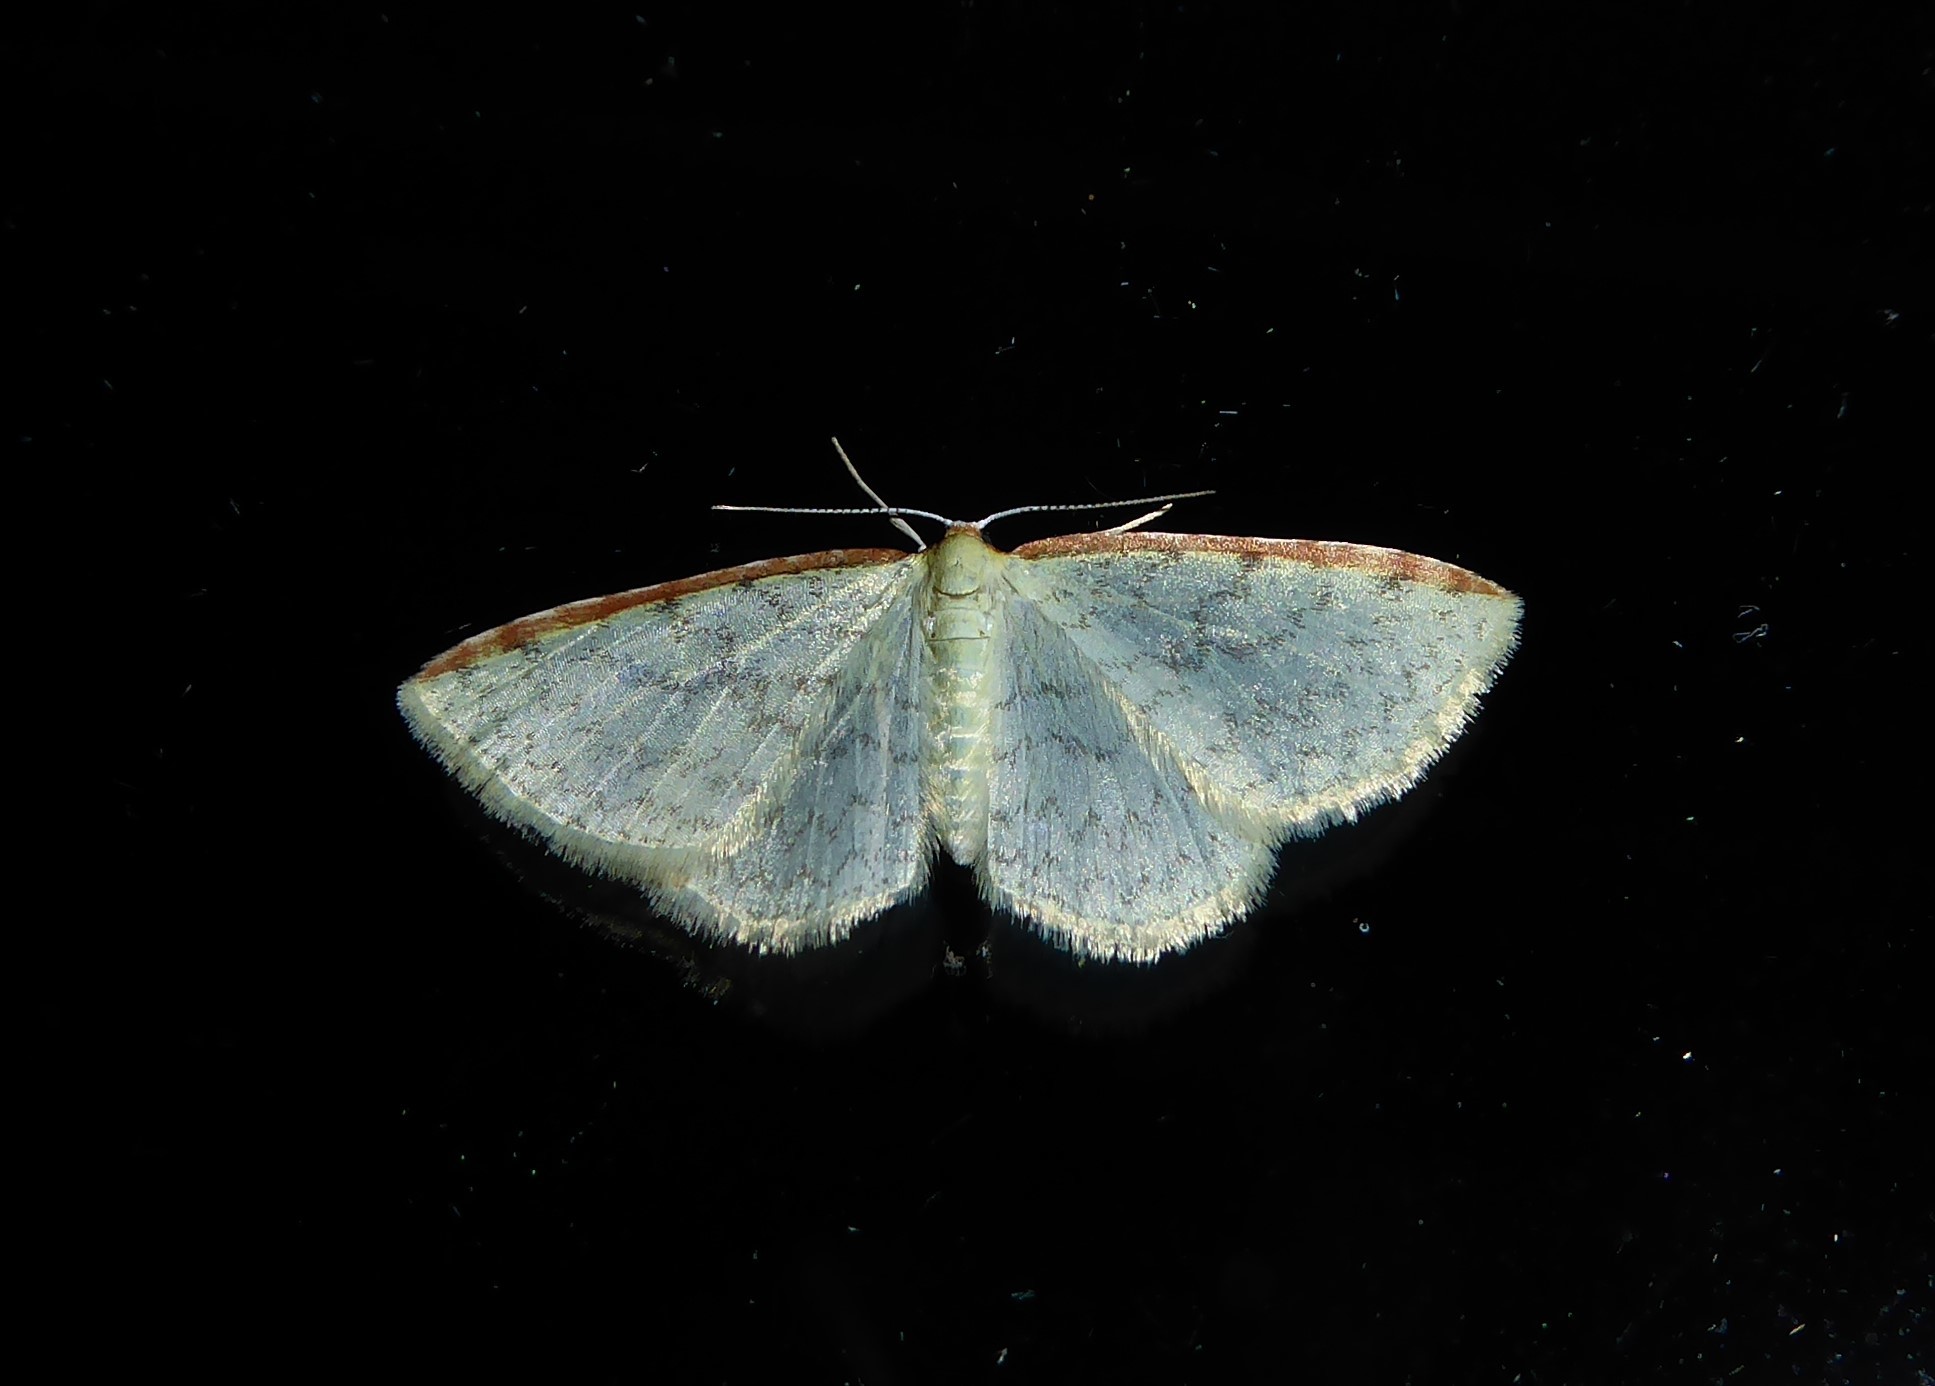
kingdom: Animalia
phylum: Arthropoda
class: Insecta
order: Lepidoptera
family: Geometridae
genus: Epiphryne
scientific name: Epiphryne undosata
